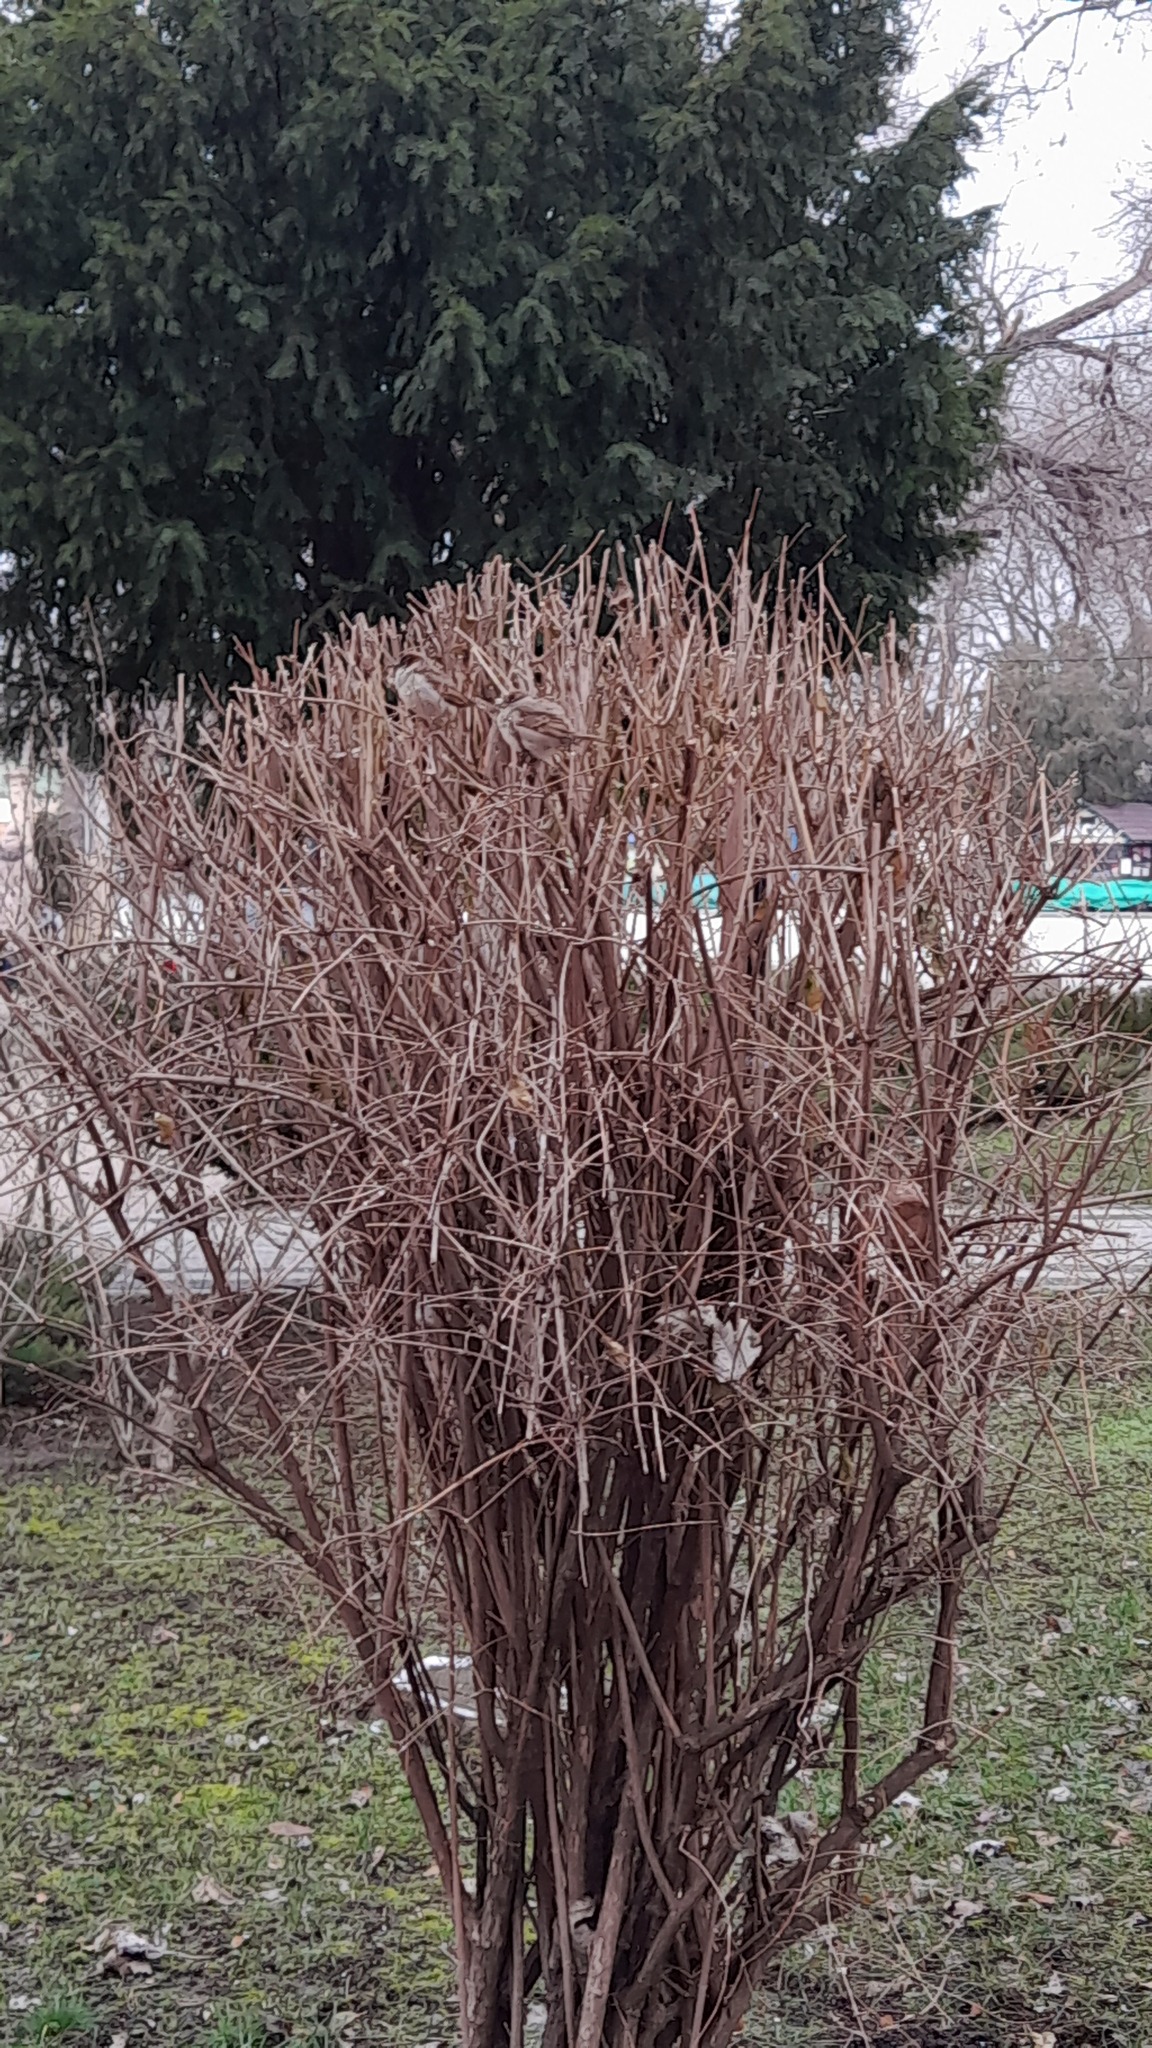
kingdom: Animalia
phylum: Chordata
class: Aves
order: Passeriformes
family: Passeridae
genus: Passer
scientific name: Passer domesticus
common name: House sparrow
